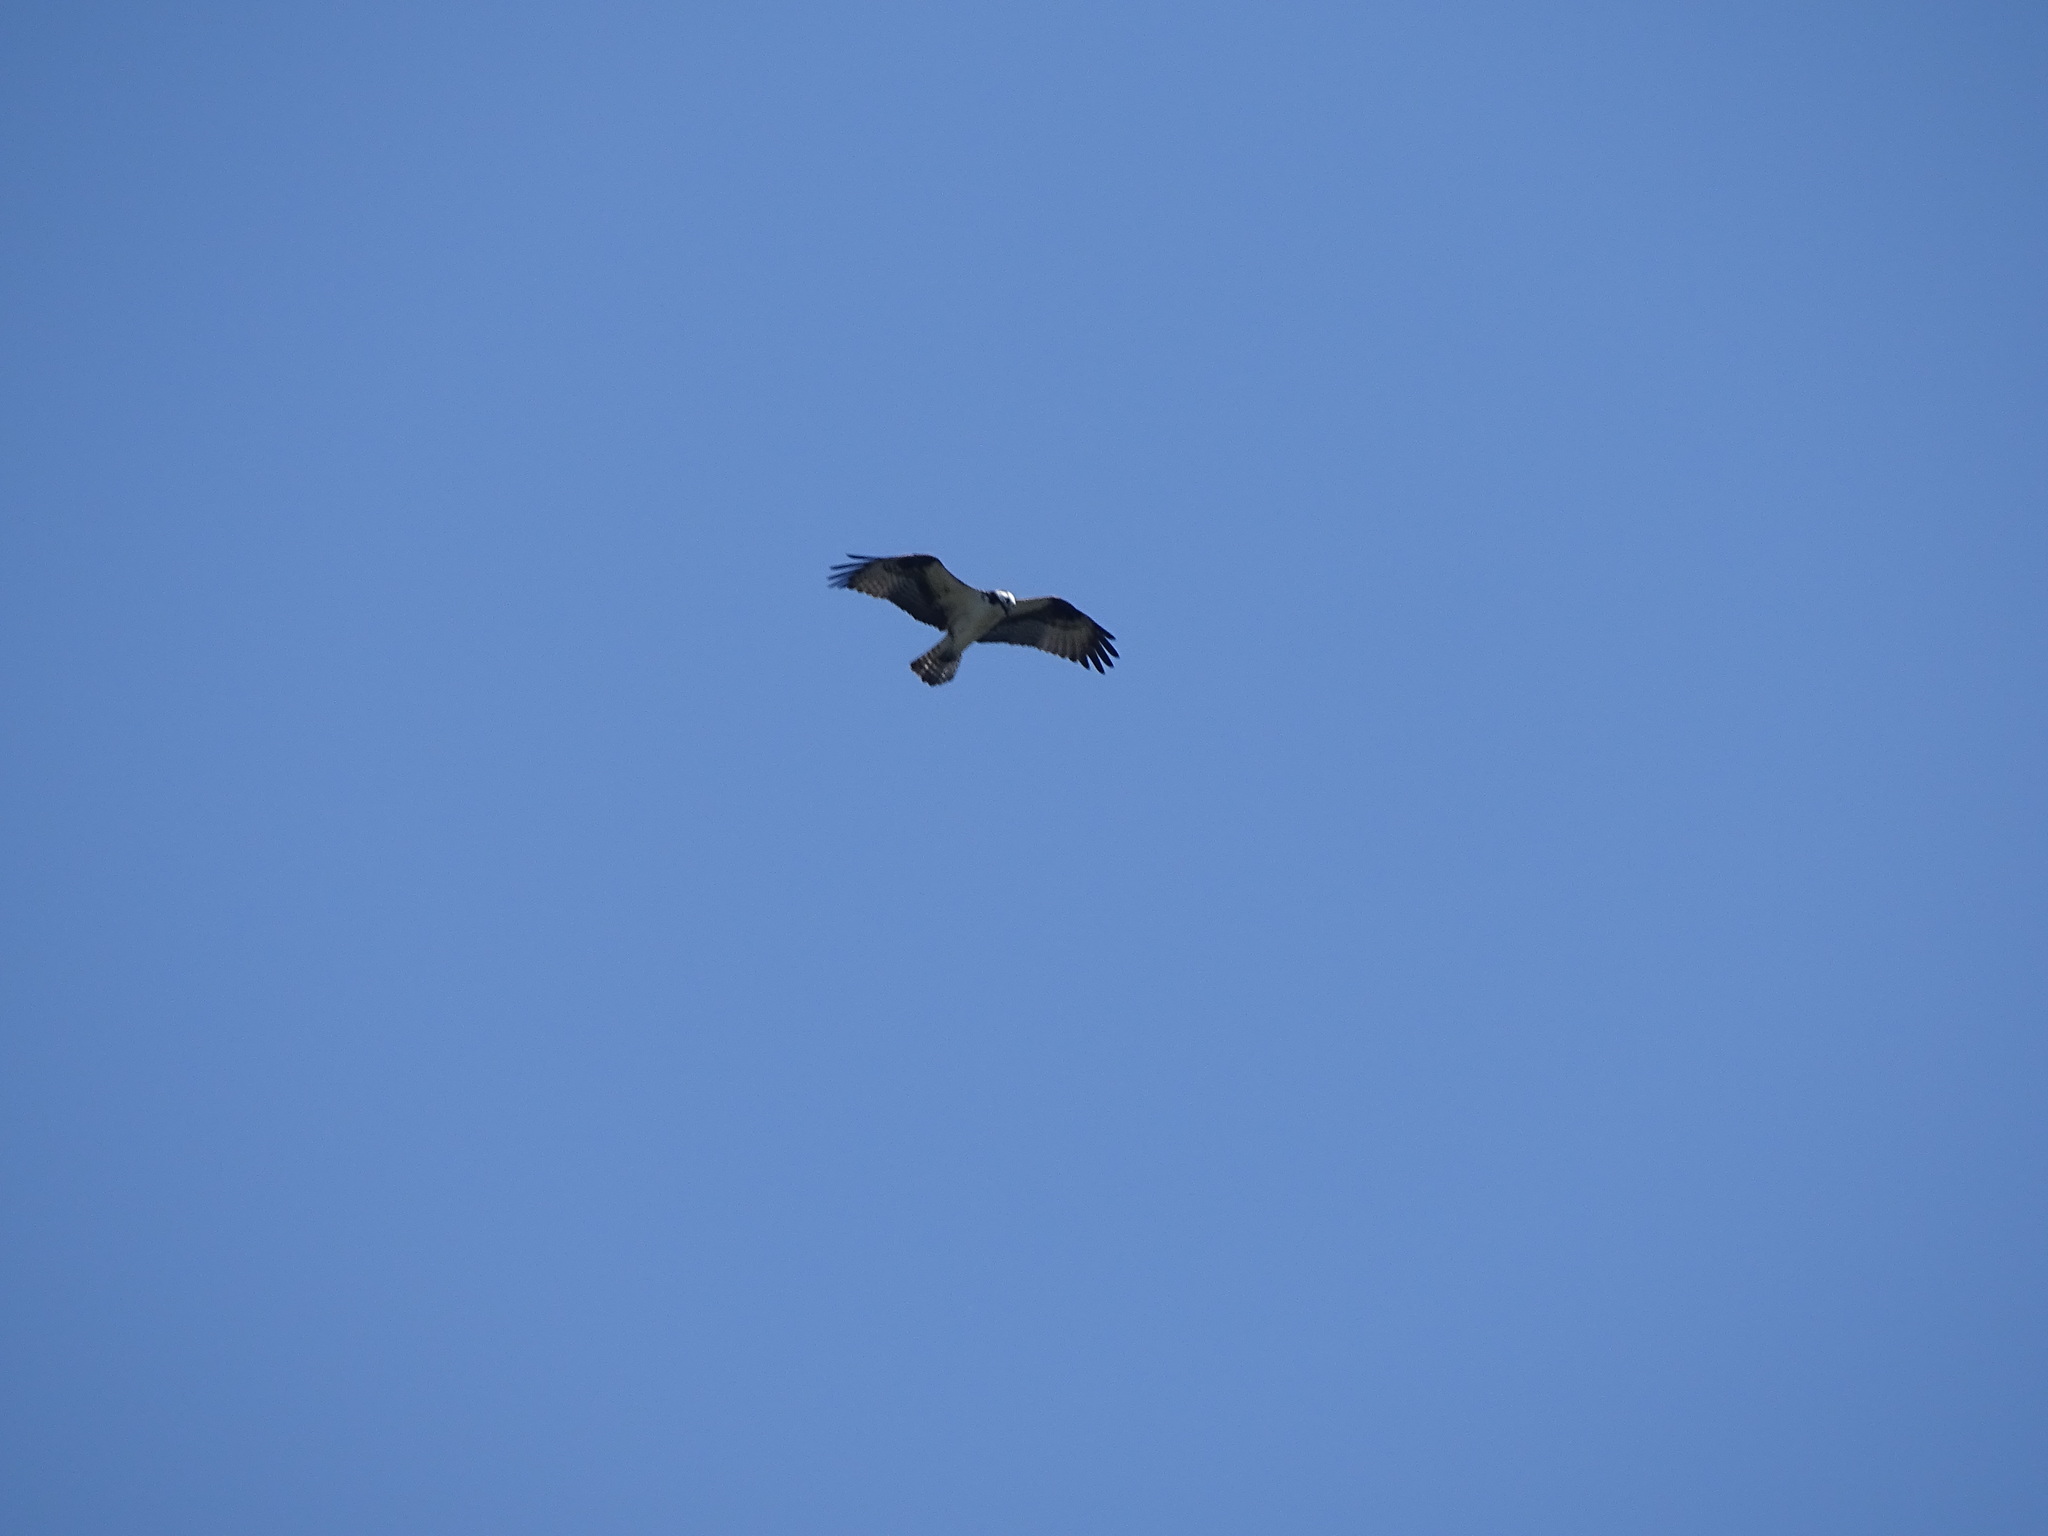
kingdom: Animalia
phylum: Chordata
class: Aves
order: Accipitriformes
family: Pandionidae
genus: Pandion
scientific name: Pandion haliaetus
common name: Osprey
